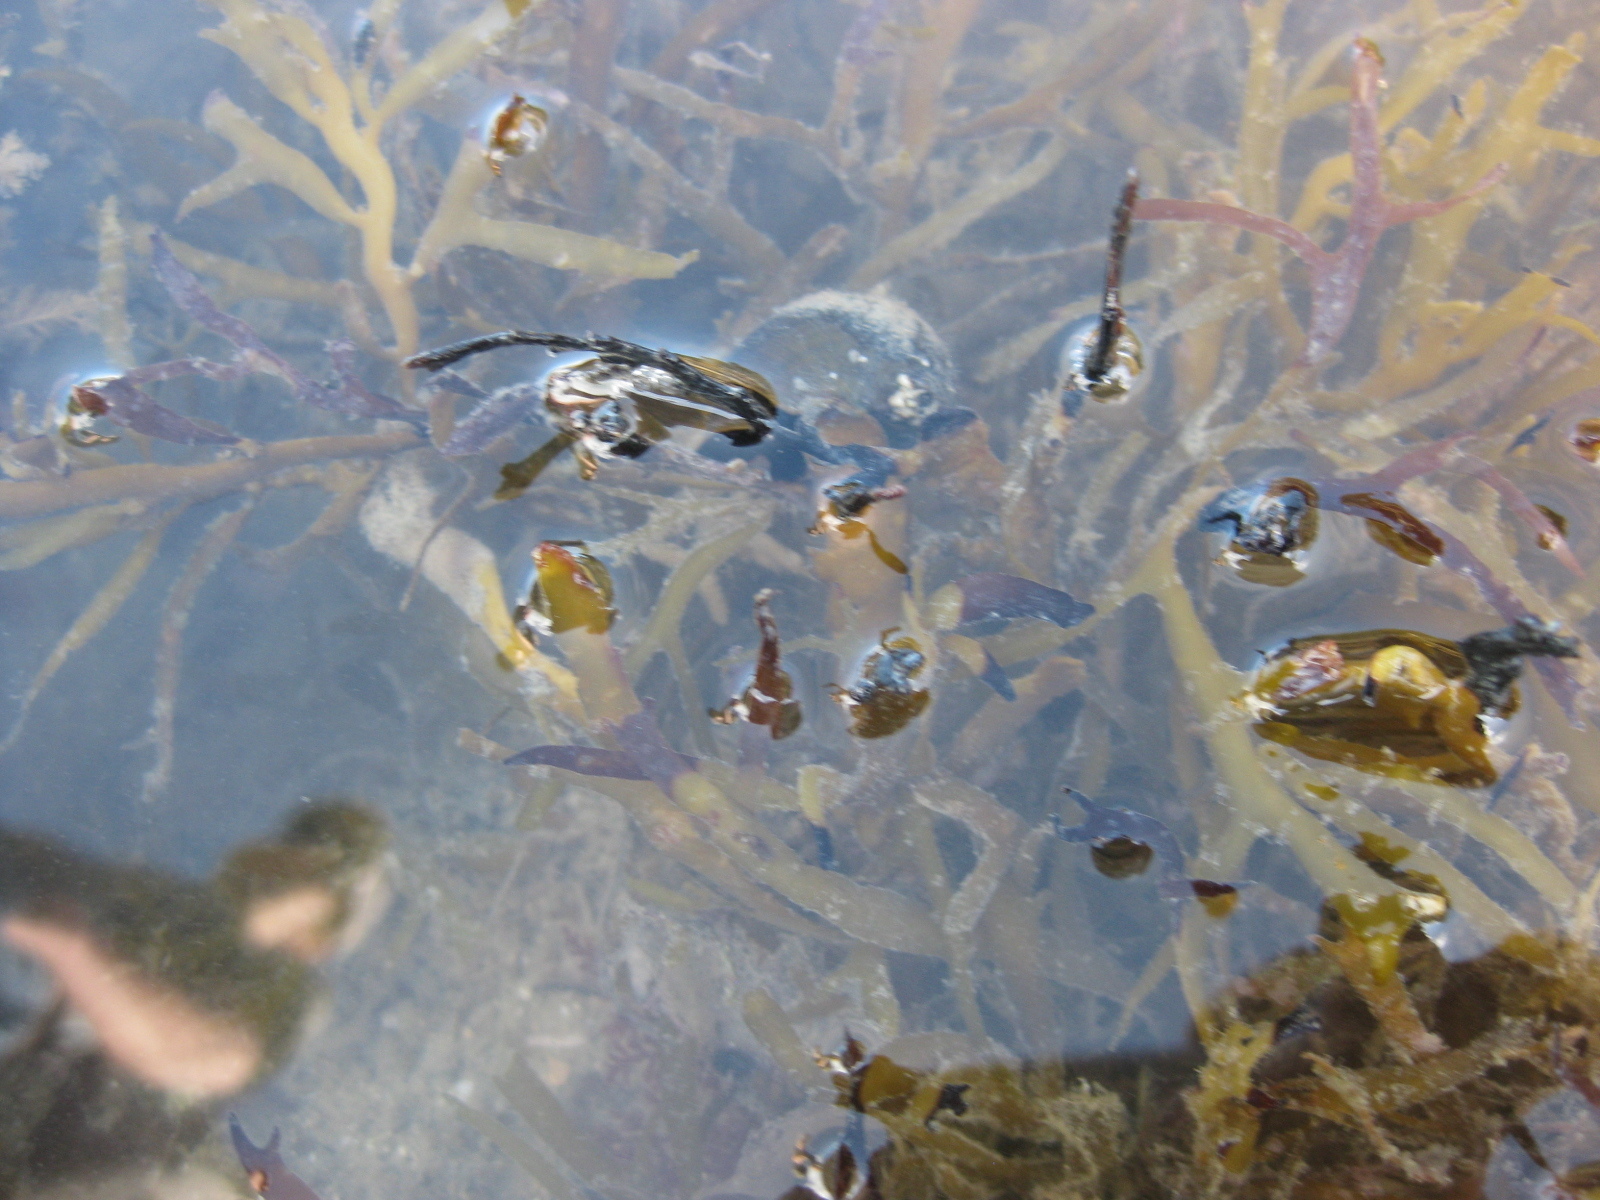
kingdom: Chromista
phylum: Ochrophyta
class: Phaeophyceae
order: Fucales
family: Sargassaceae
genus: Carpophyllum
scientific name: Carpophyllum maschalocarpum
